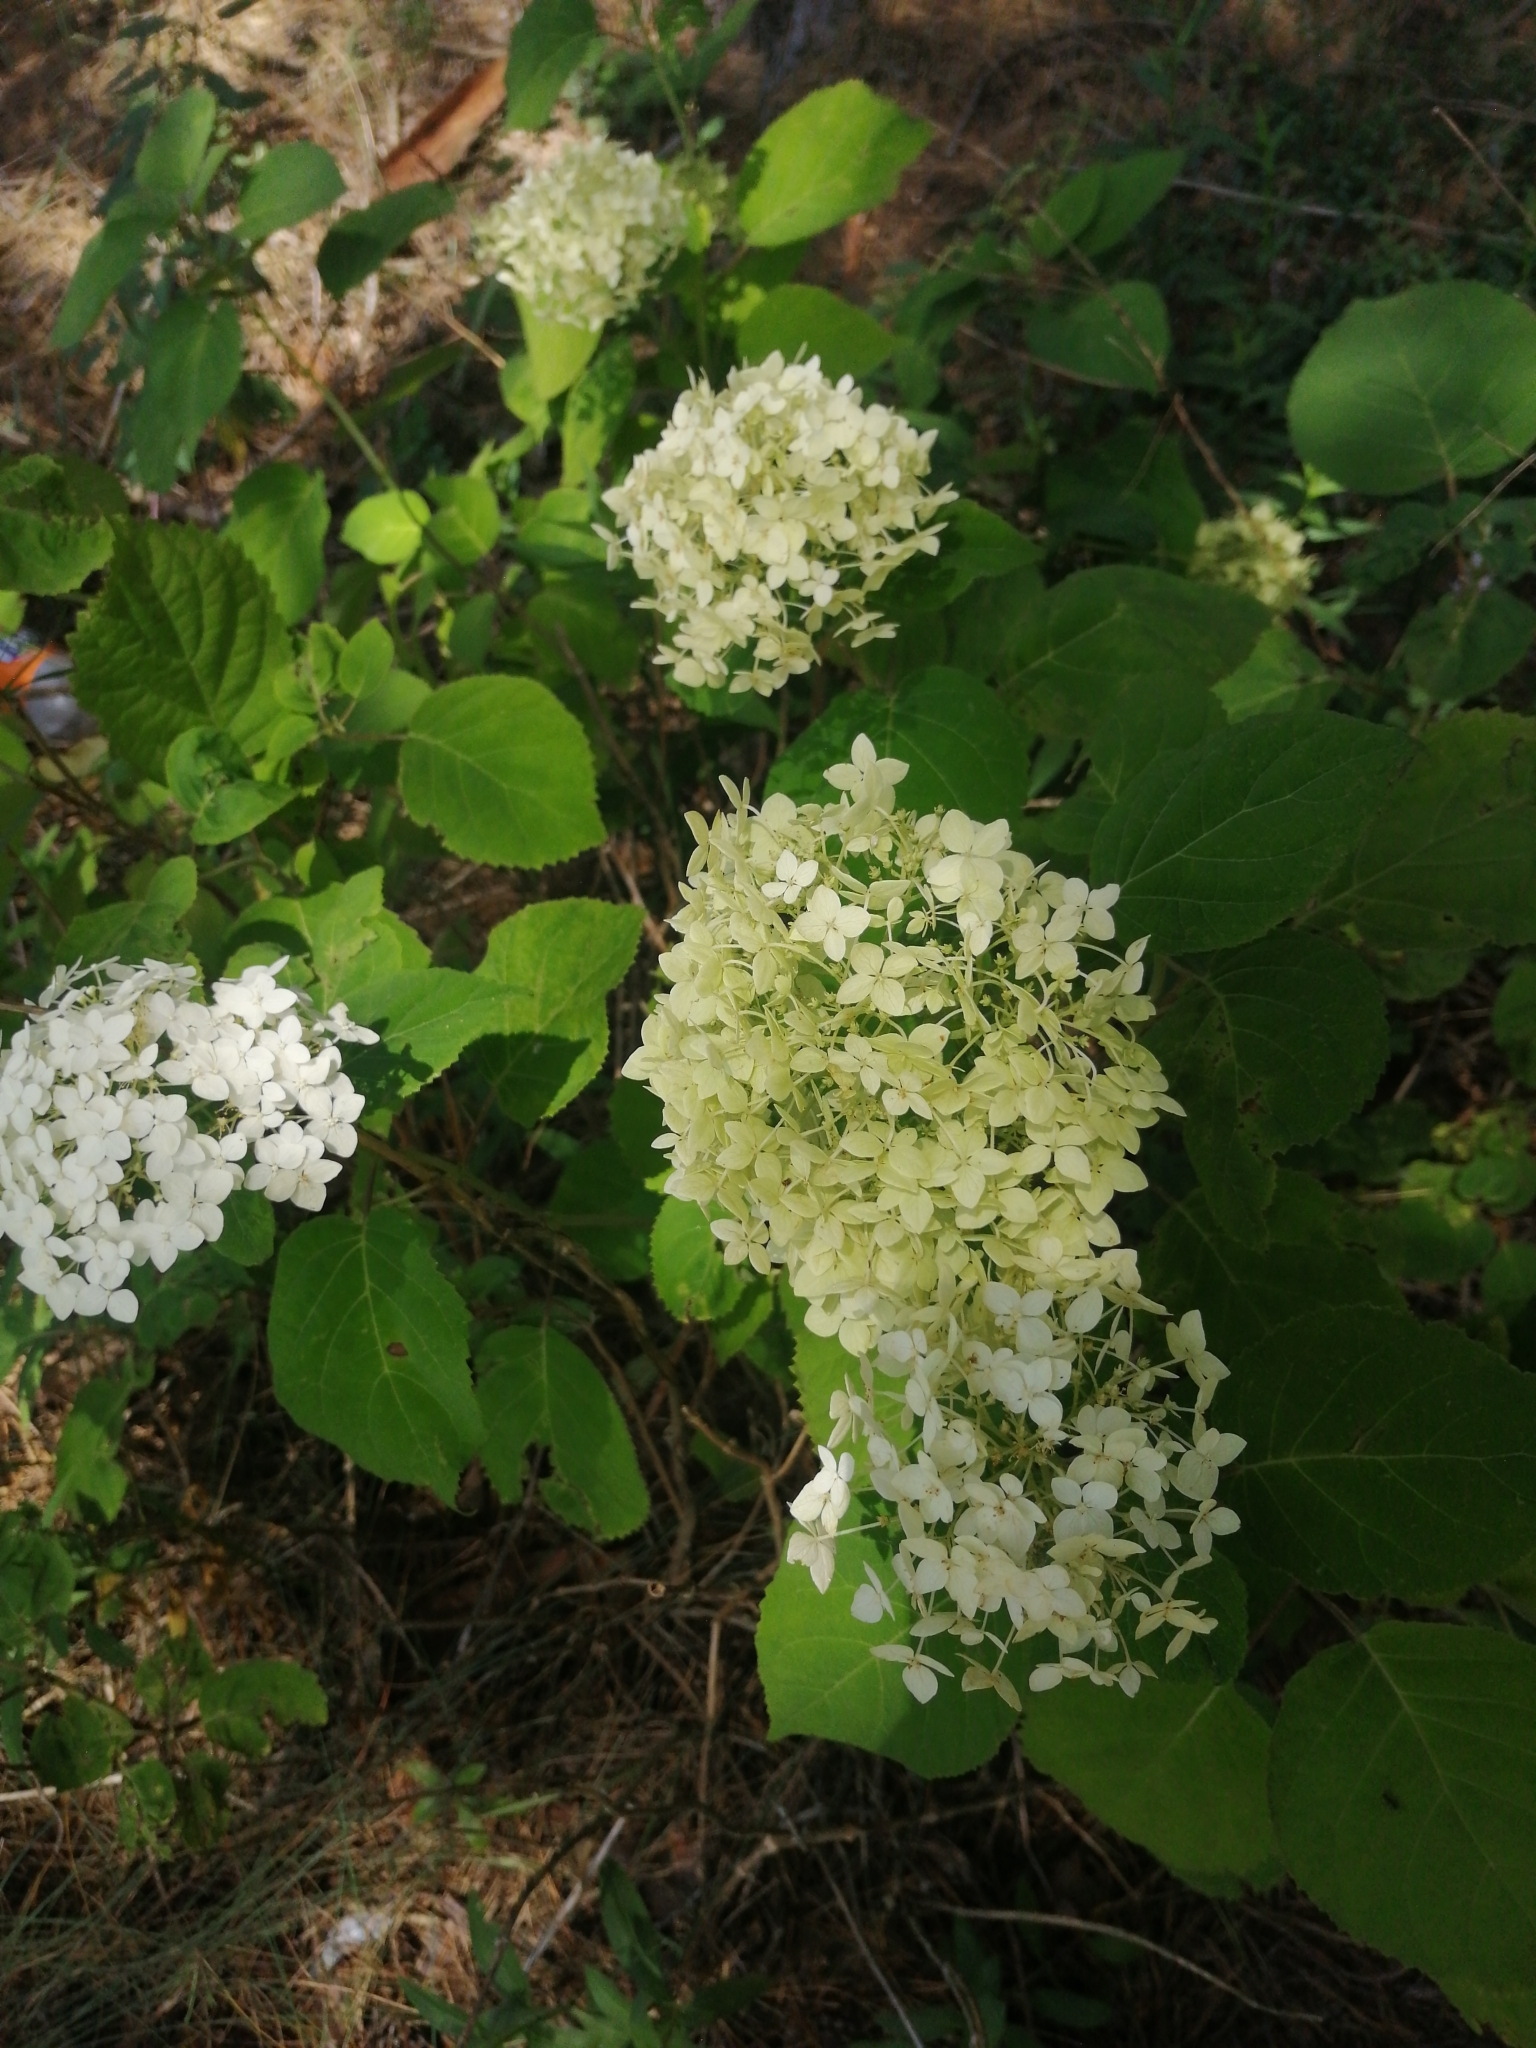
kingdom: Plantae
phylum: Tracheophyta
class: Magnoliopsida
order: Cornales
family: Hydrangeaceae
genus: Hydrangea
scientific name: Hydrangea arborescens
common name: Sevenbark
